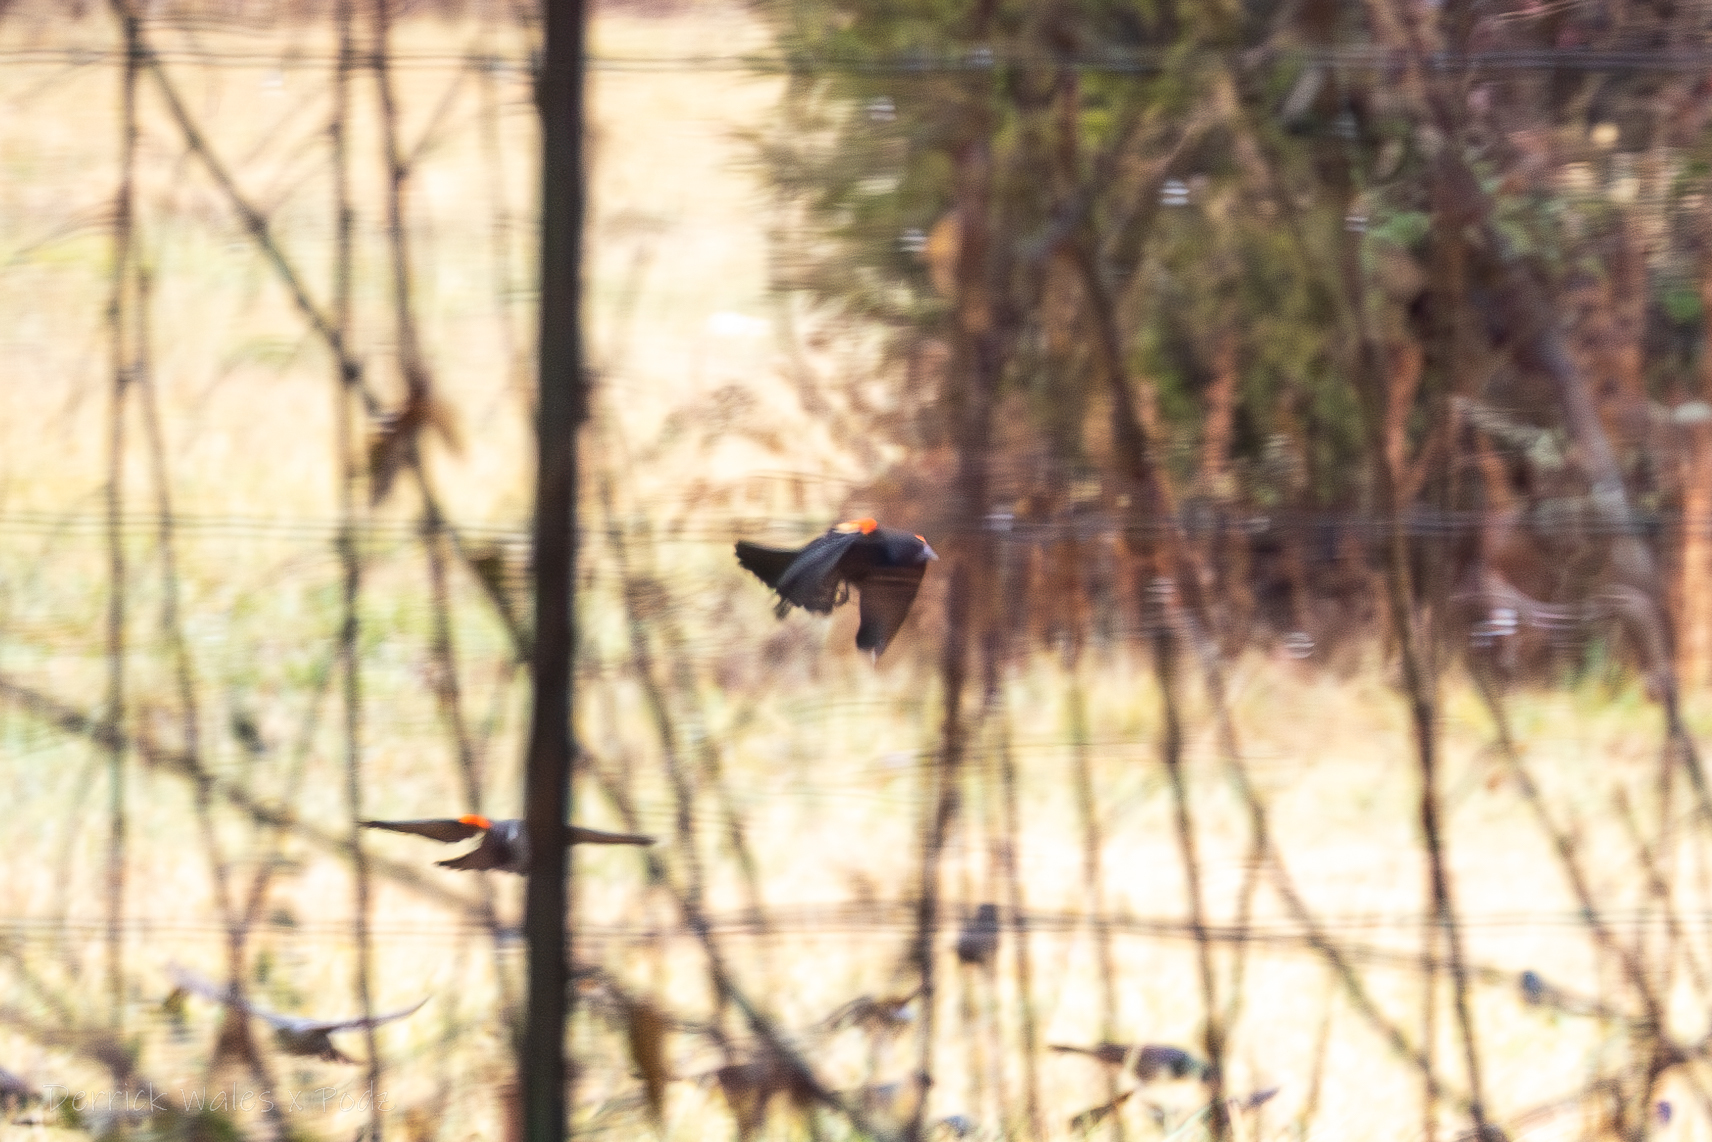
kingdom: Animalia
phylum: Chordata
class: Aves
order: Passeriformes
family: Icteridae
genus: Agelaius
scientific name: Agelaius phoeniceus
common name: Red-winged blackbird
